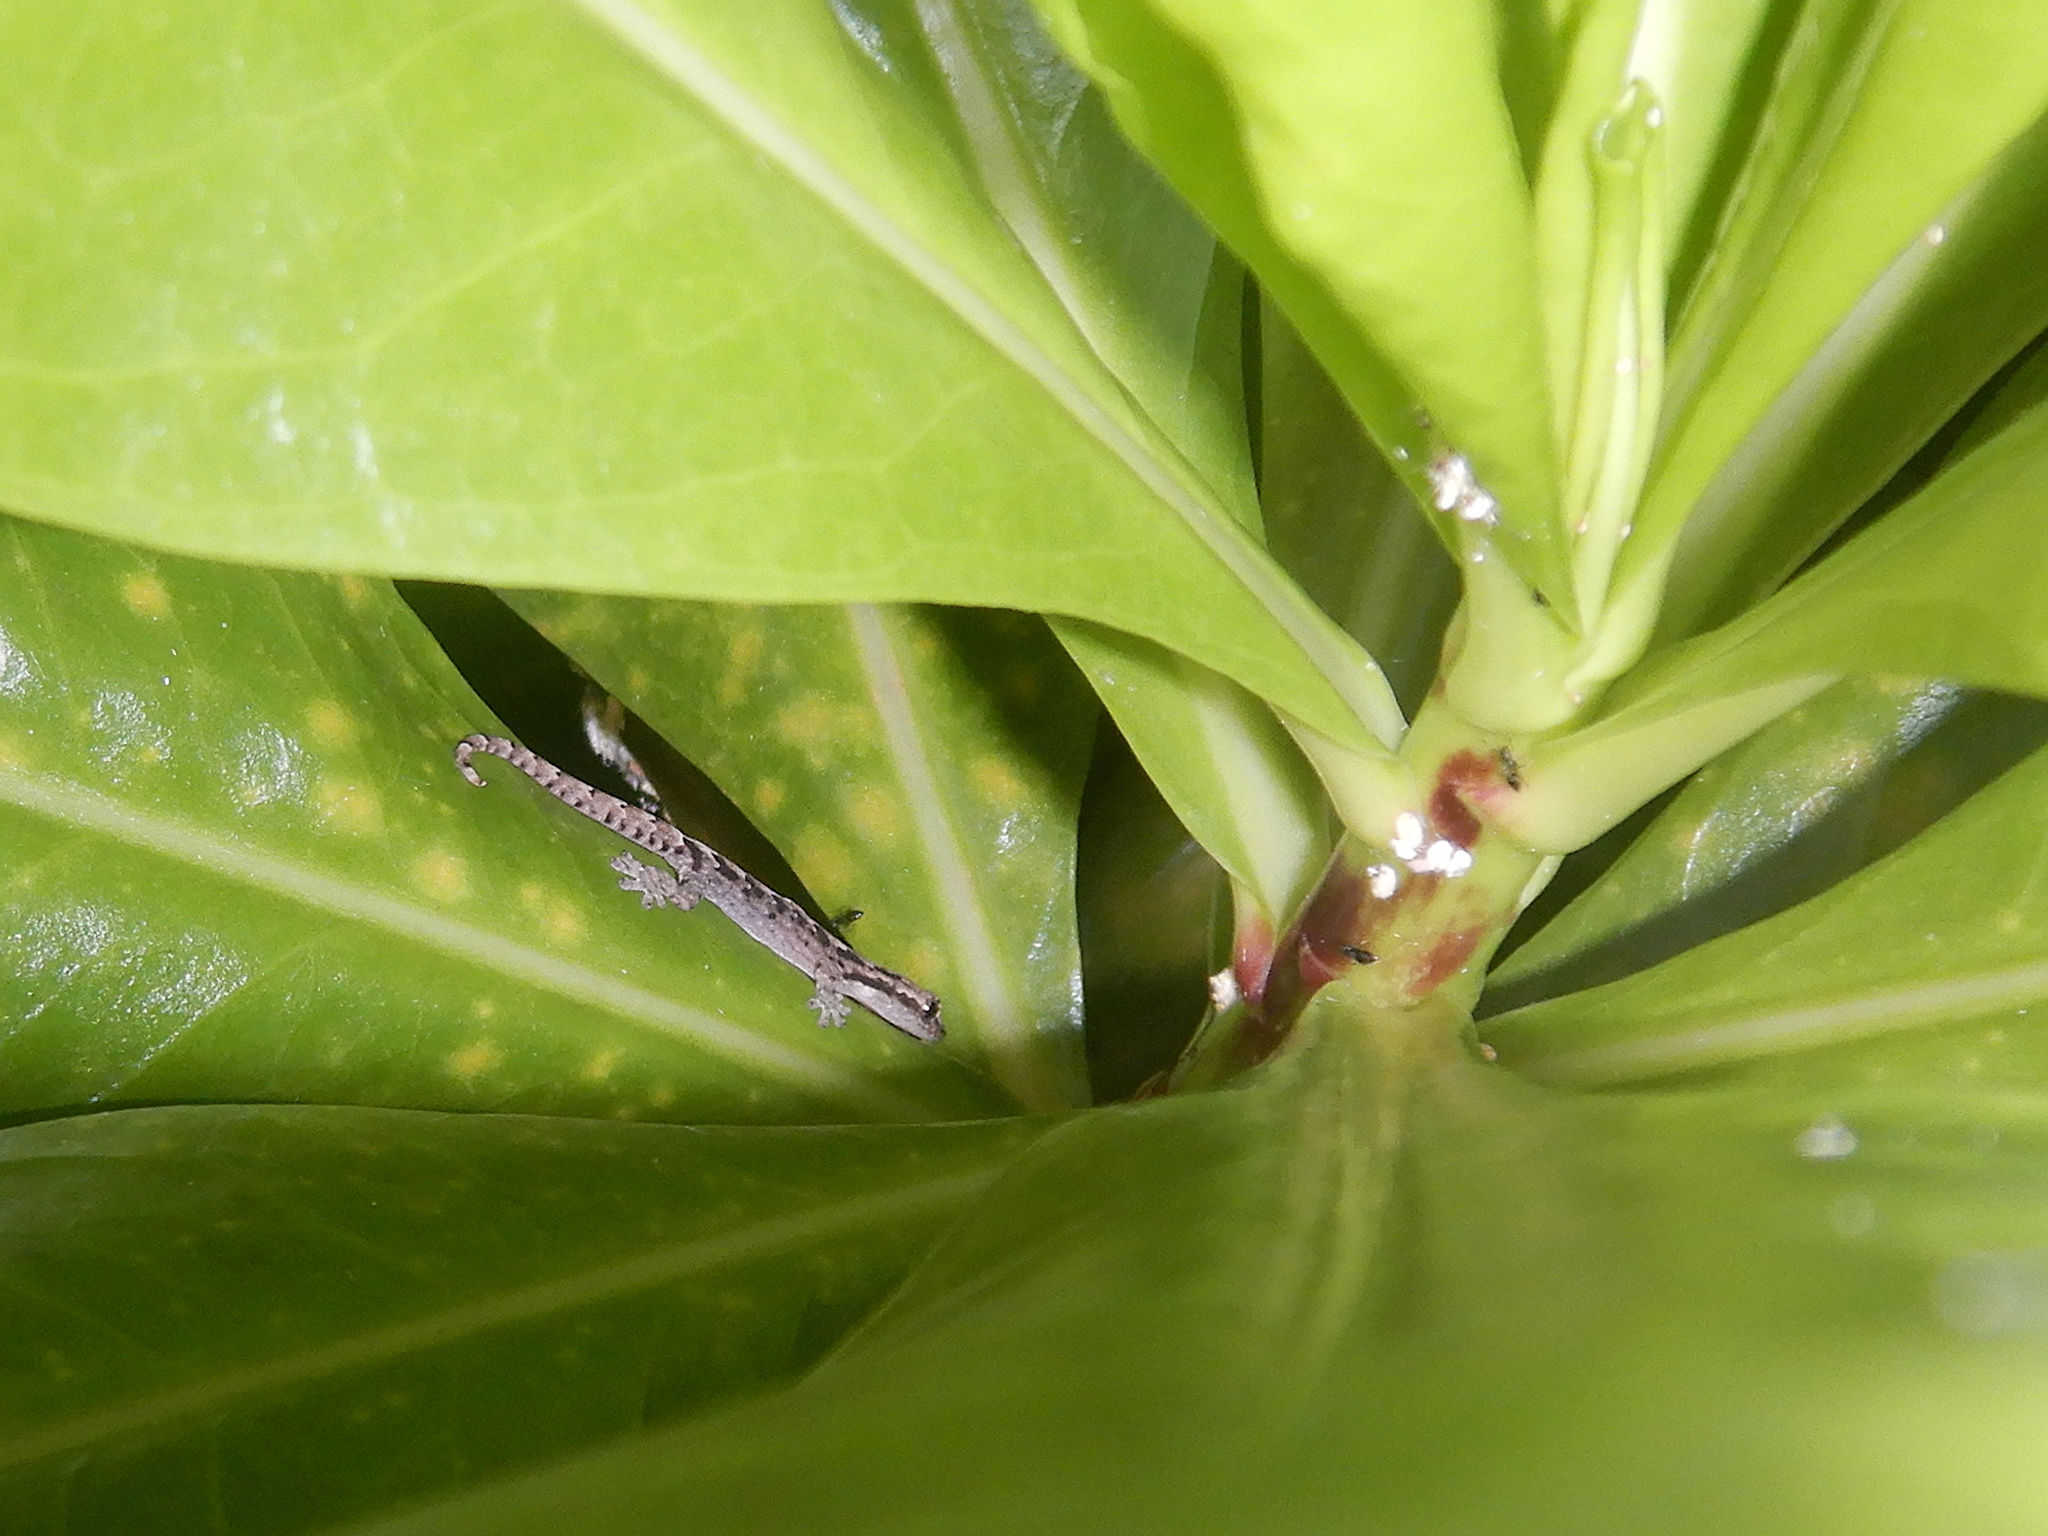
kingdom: Animalia
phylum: Chordata
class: Squamata
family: Gekkonidae
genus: Lepidodactylus
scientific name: Lepidodactylus lugubris
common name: Mourning gecko
